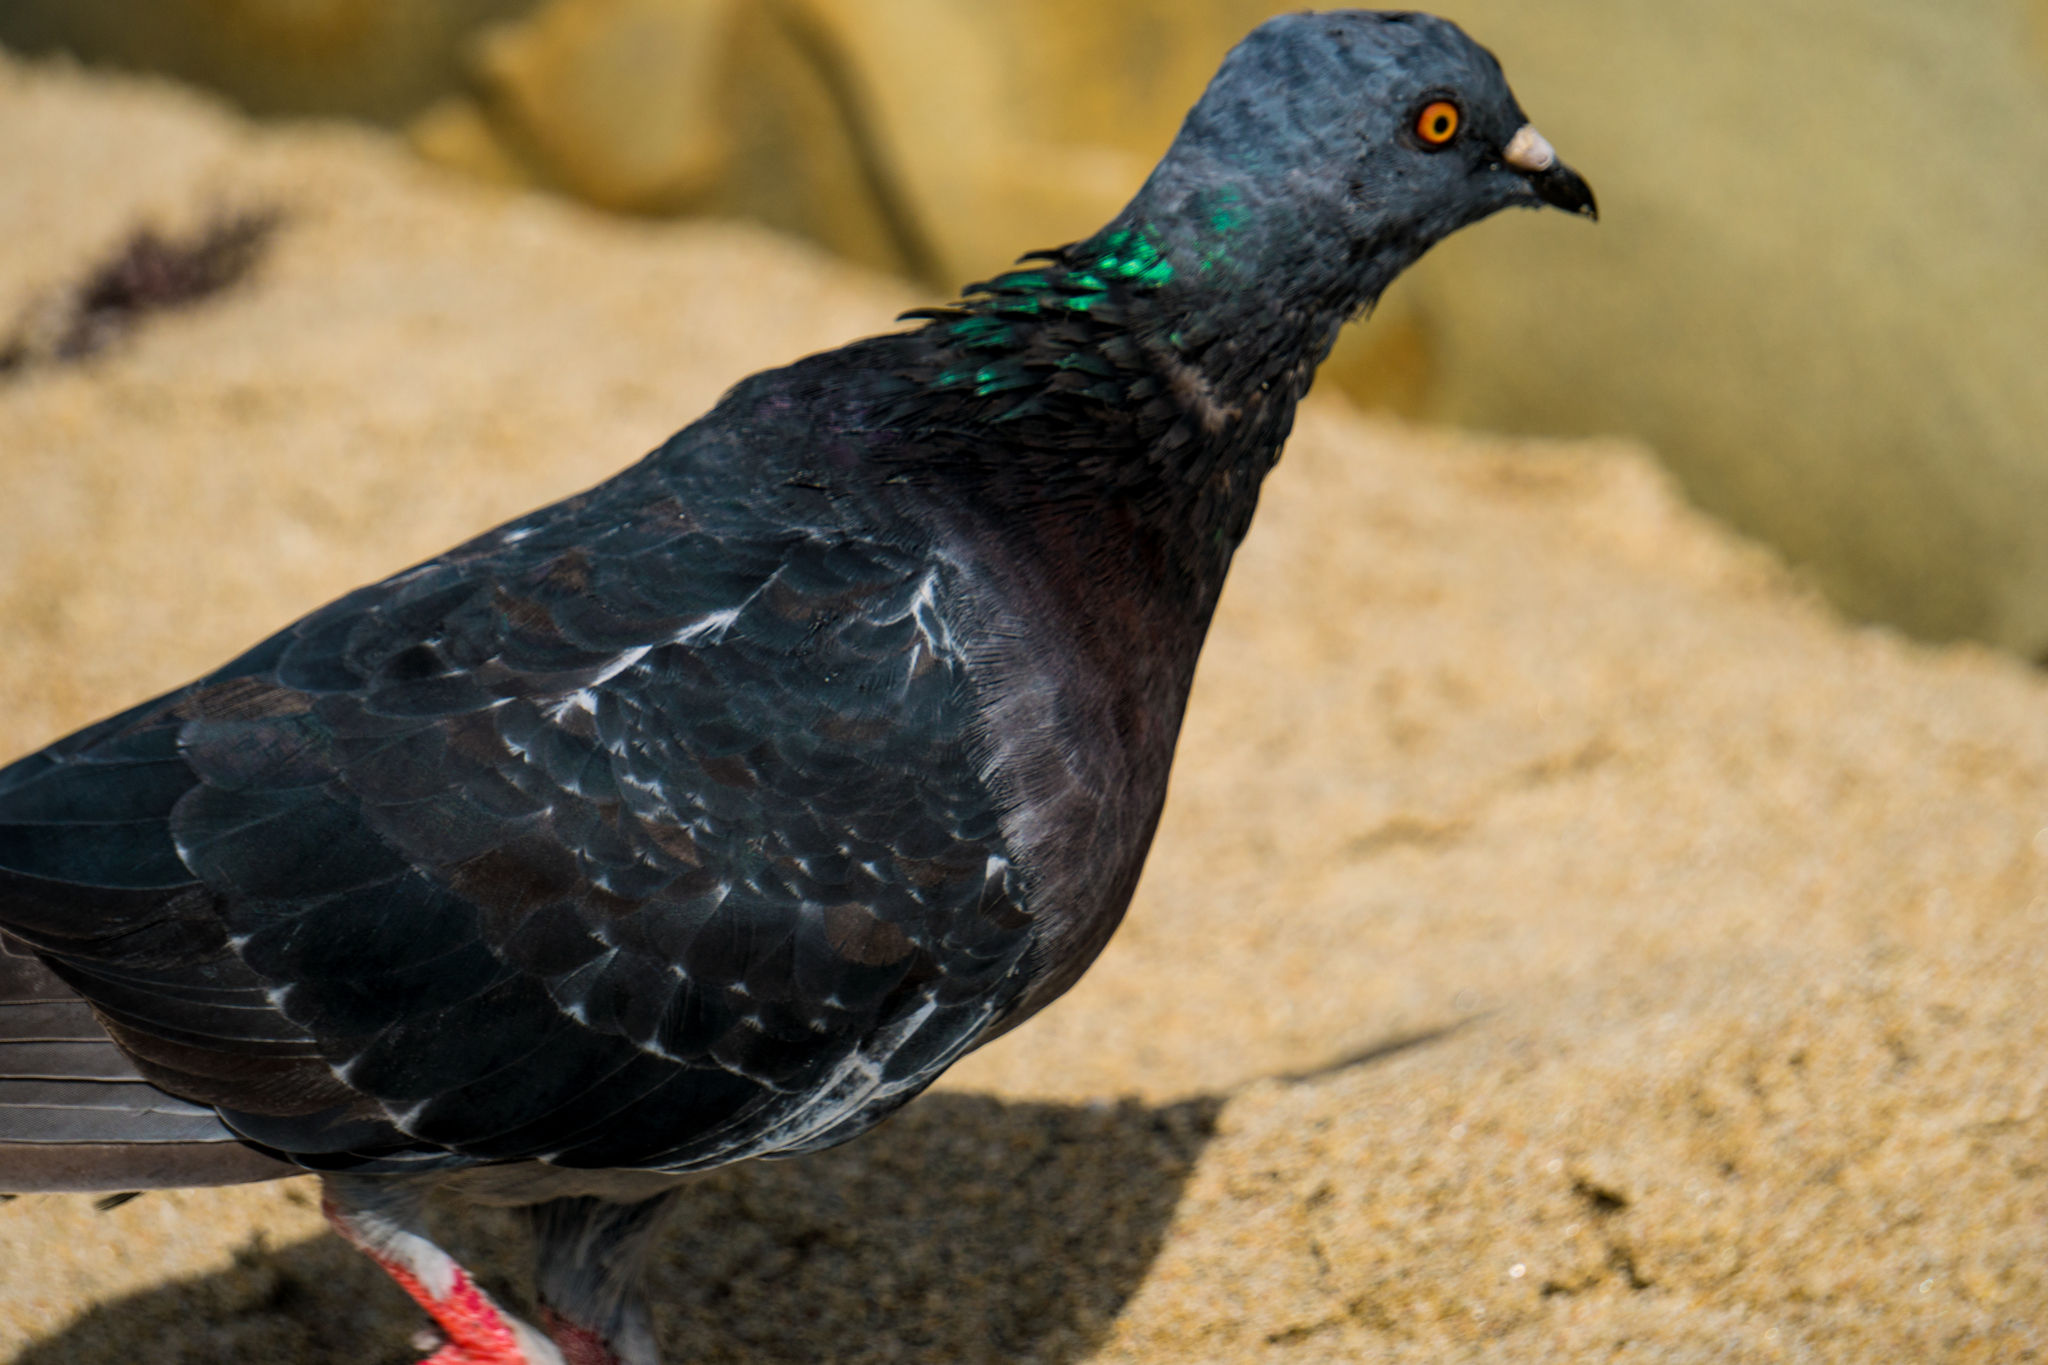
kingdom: Animalia
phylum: Chordata
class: Aves
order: Columbiformes
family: Columbidae
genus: Columba
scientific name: Columba livia
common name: Rock pigeon
